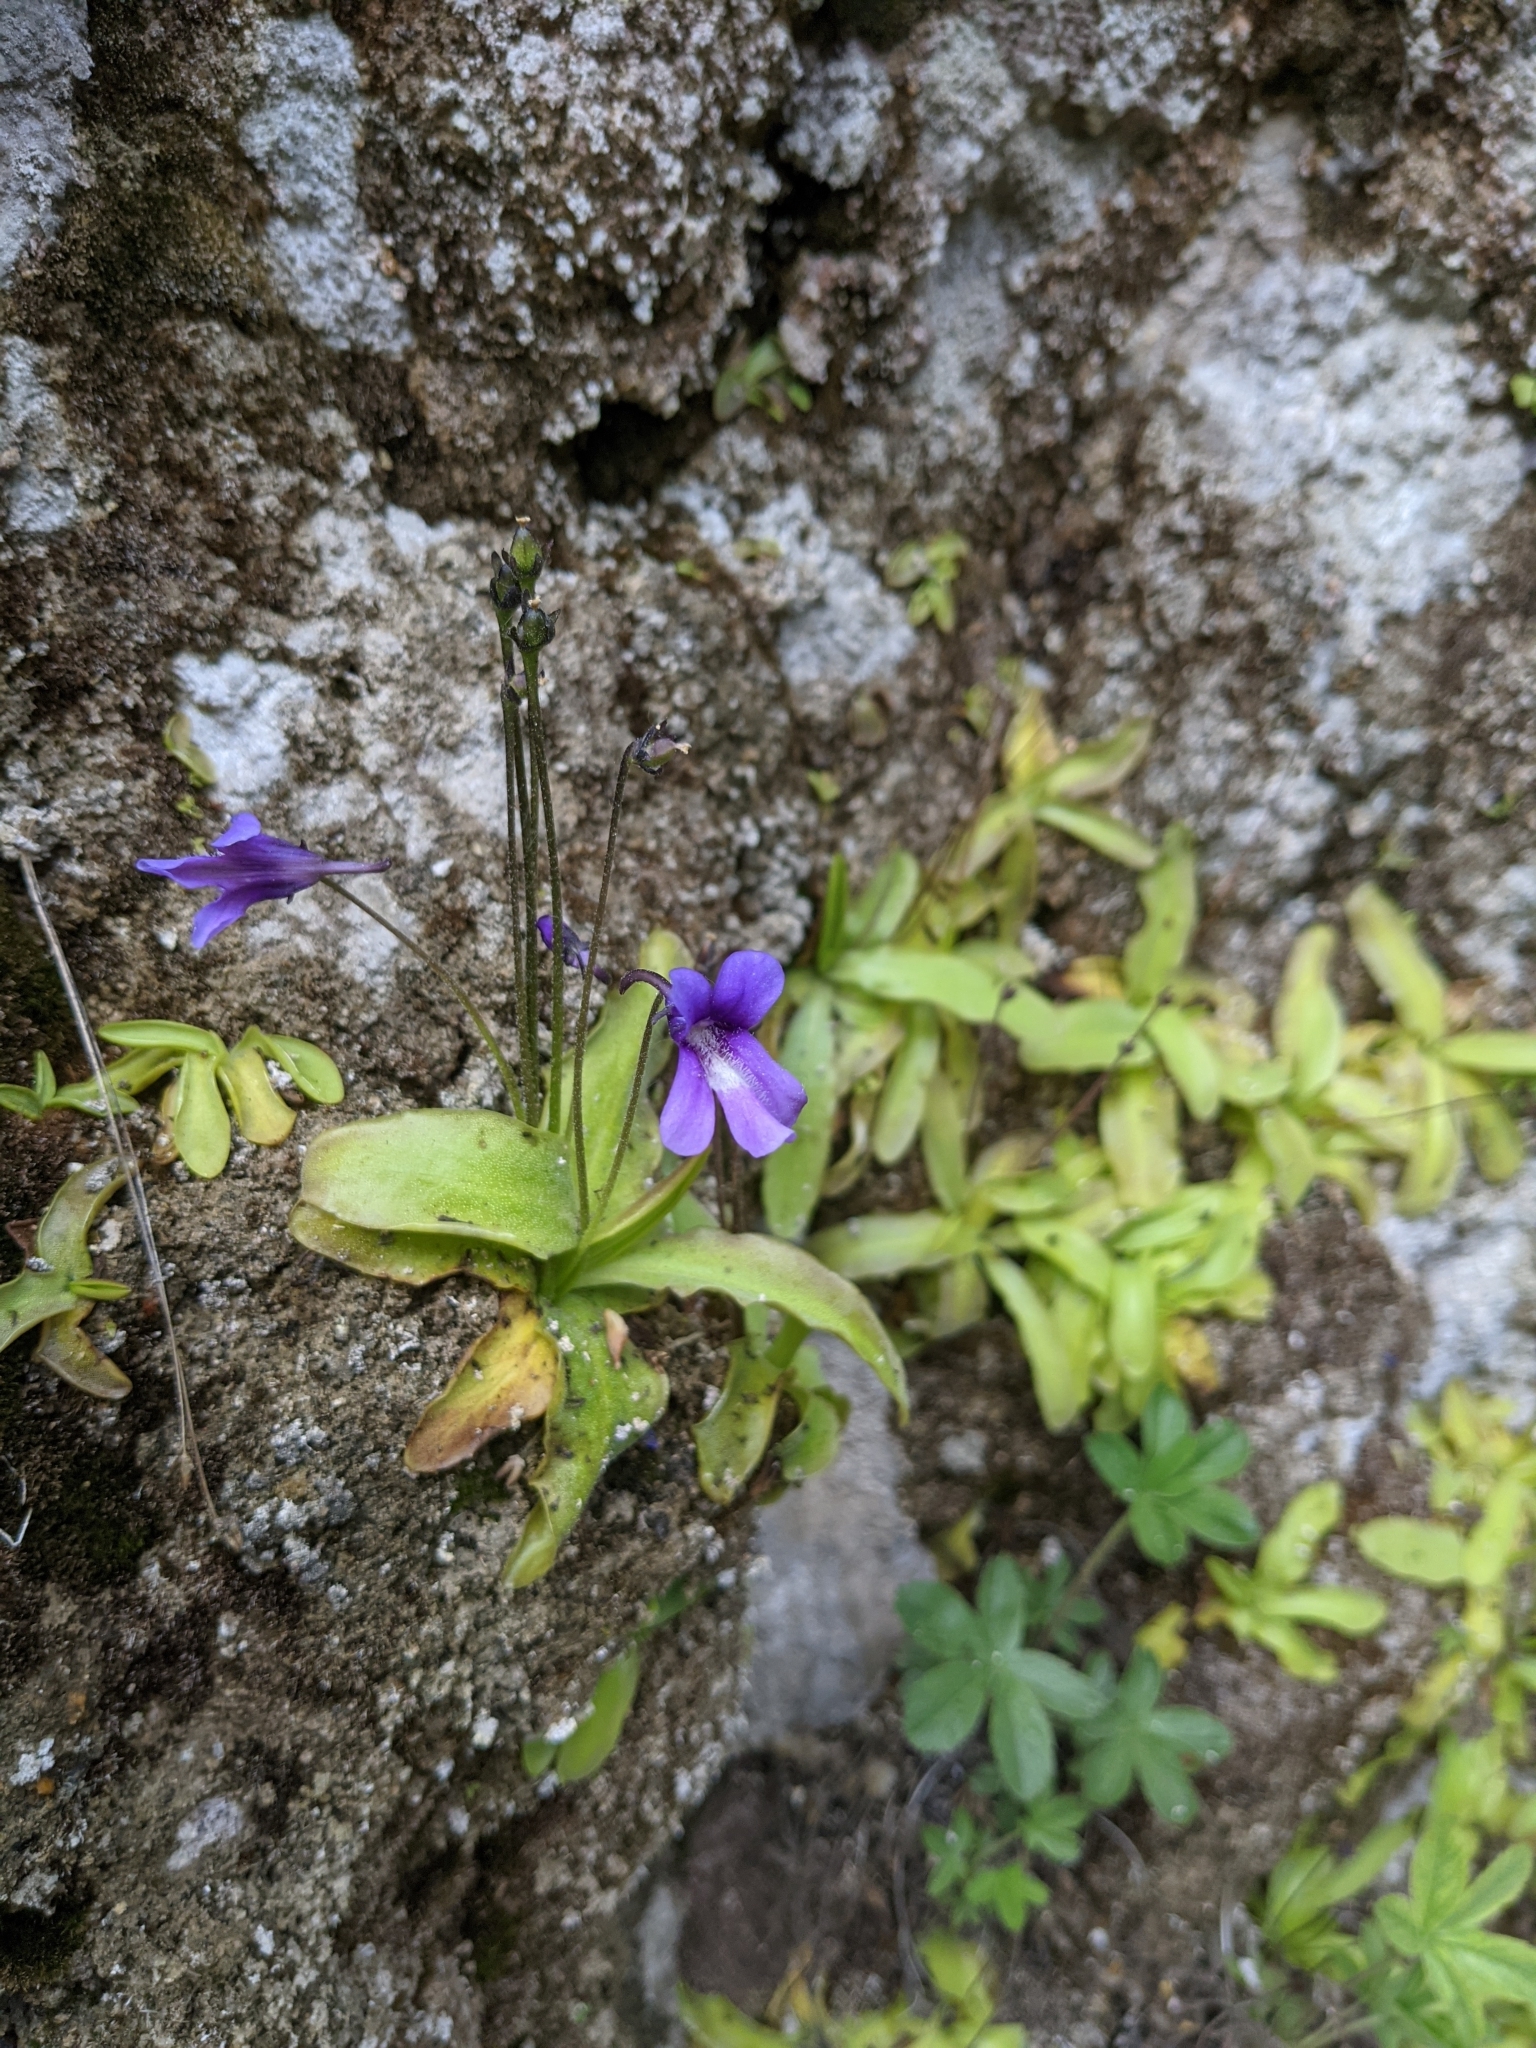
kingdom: Plantae
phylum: Tracheophyta
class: Magnoliopsida
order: Lamiales
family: Lentibulariaceae
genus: Pinguicula
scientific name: Pinguicula caussensis
